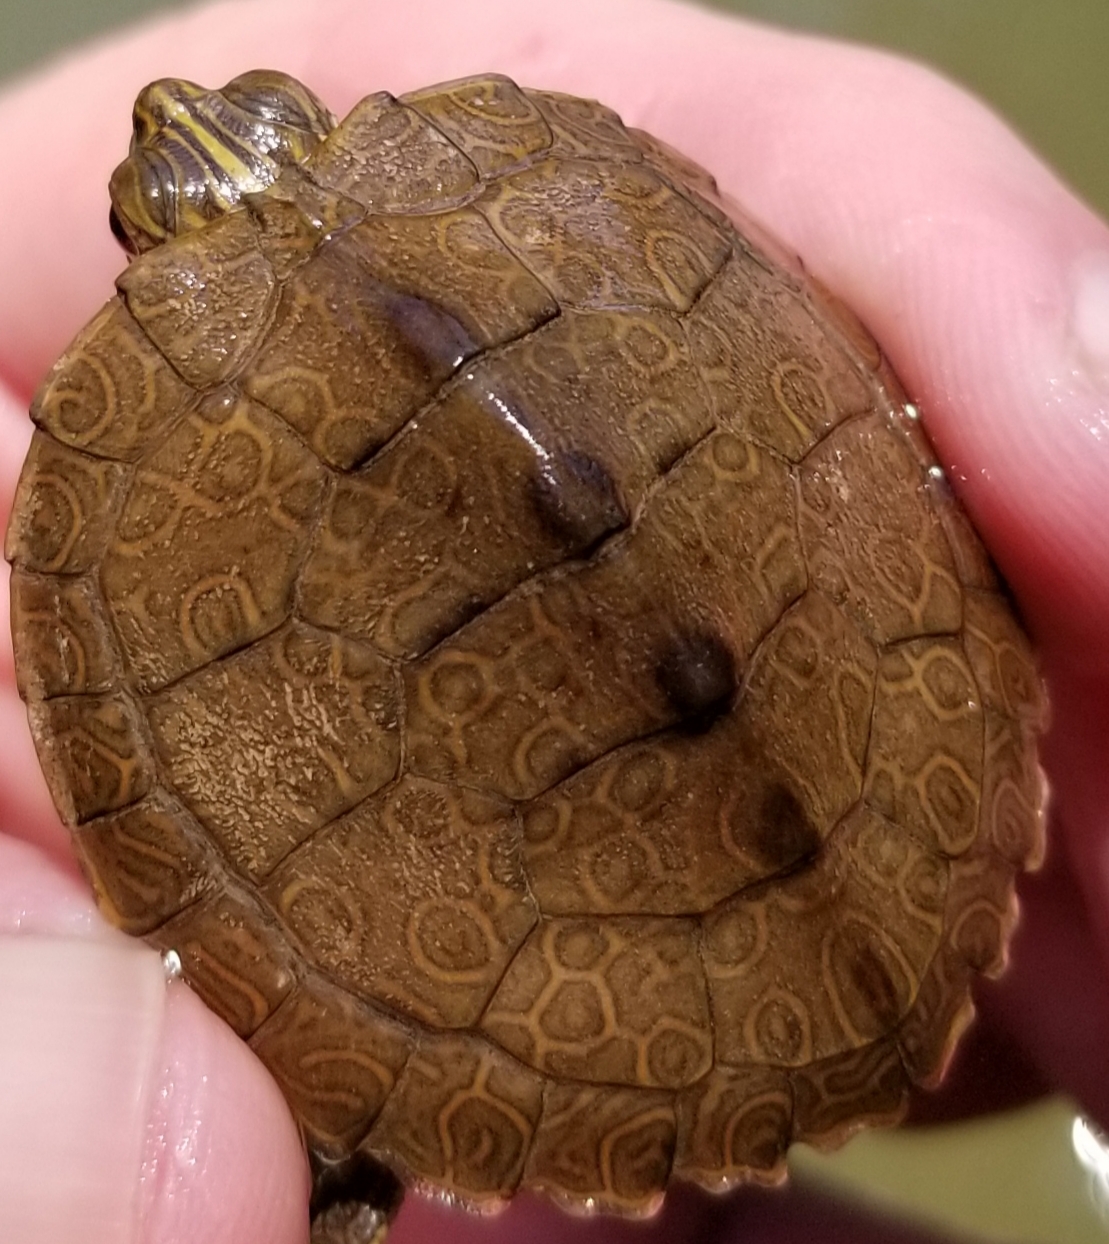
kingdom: Animalia
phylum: Chordata
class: Testudines
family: Emydidae
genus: Graptemys
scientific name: Graptemys geographica
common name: Common map turtle
